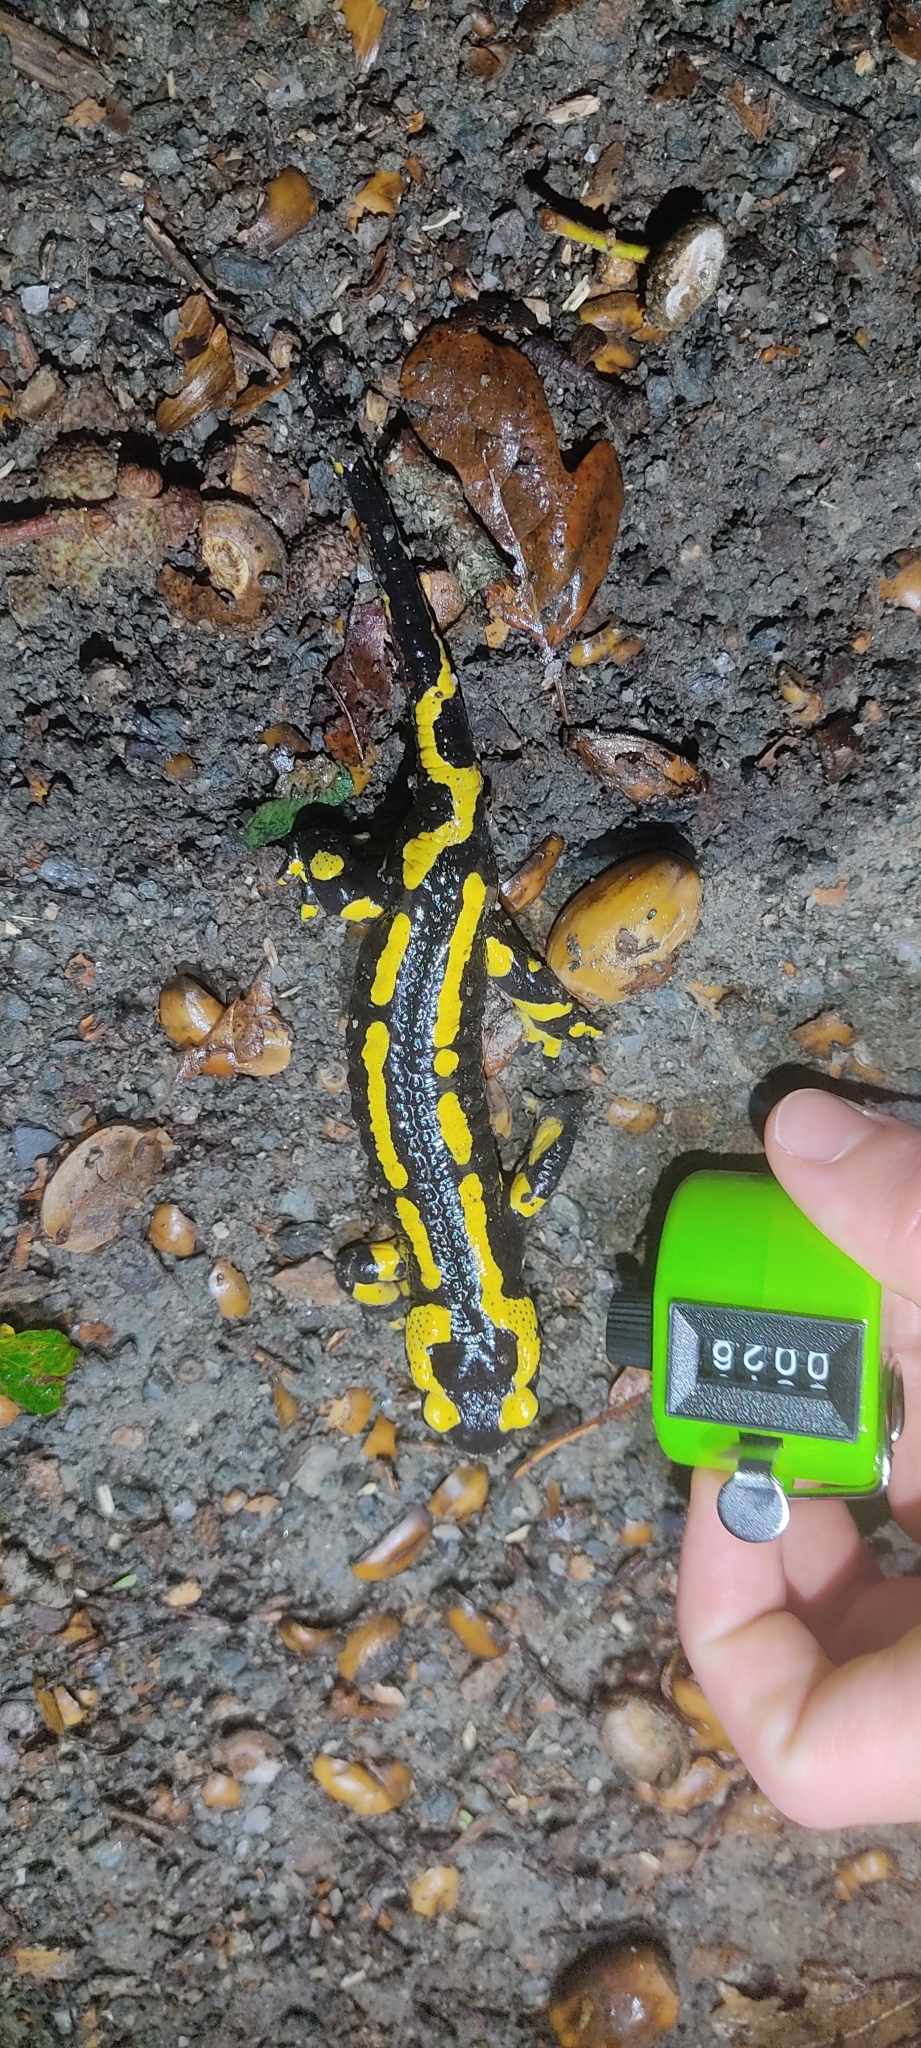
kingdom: Animalia
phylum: Chordata
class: Amphibia
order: Caudata
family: Salamandridae
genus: Salamandra
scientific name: Salamandra salamandra
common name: Fire salamander
